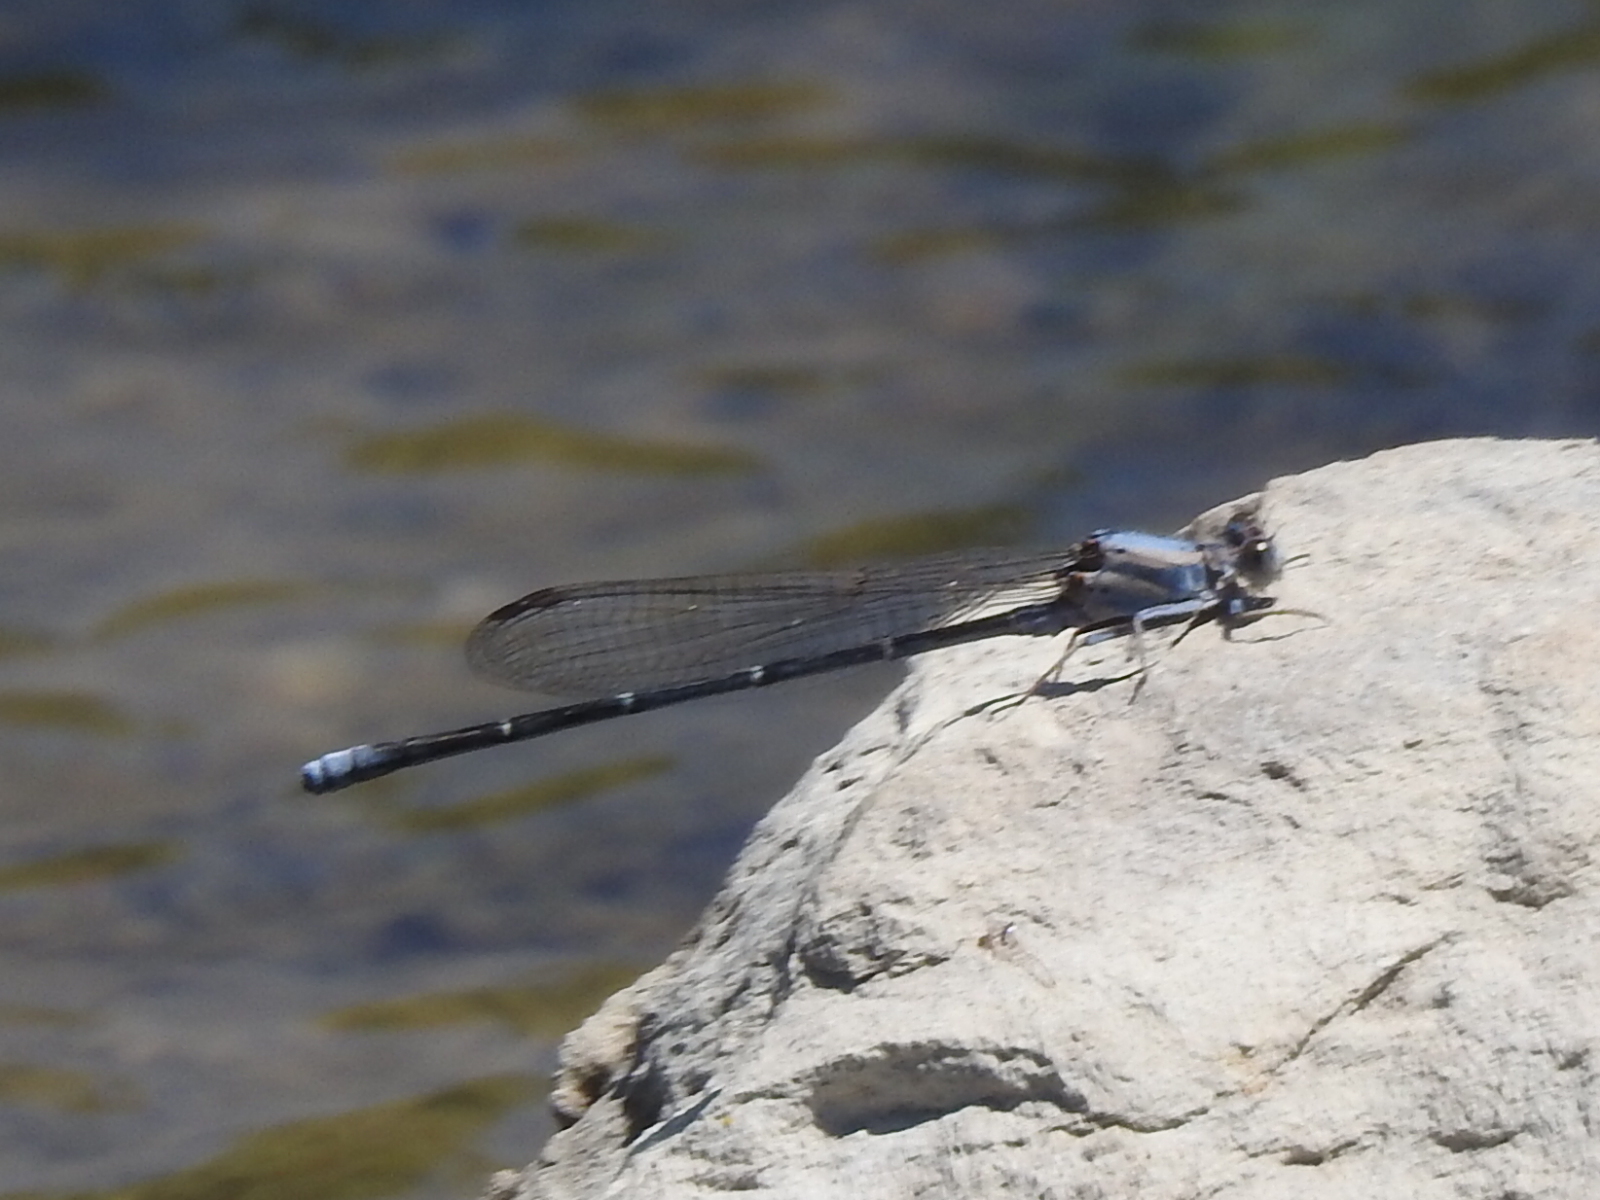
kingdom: Animalia
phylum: Arthropoda
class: Insecta
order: Odonata
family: Coenagrionidae
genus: Argia
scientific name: Argia moesta
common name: Powdered dancer
